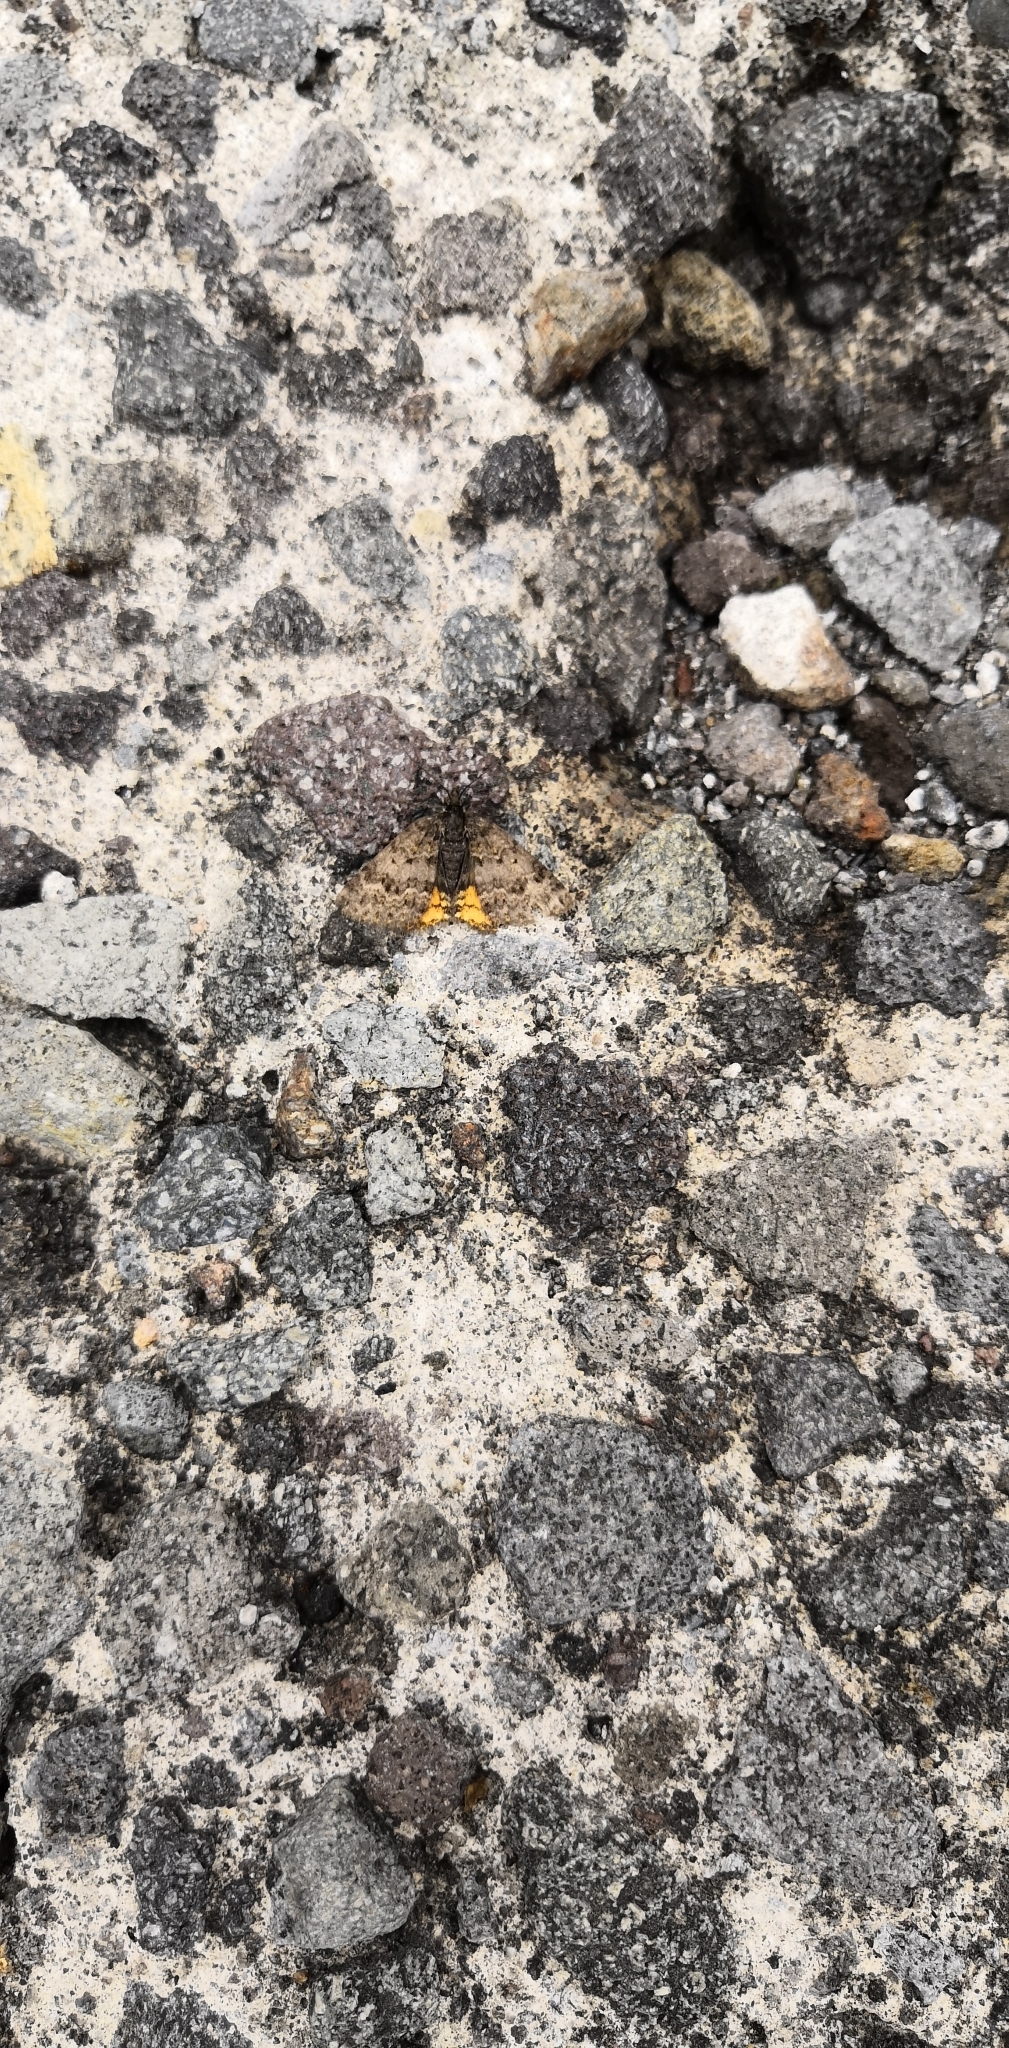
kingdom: Animalia
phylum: Arthropoda
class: Insecta
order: Lepidoptera
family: Geometridae
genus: Paranotoreas
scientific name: Paranotoreas brephosata
